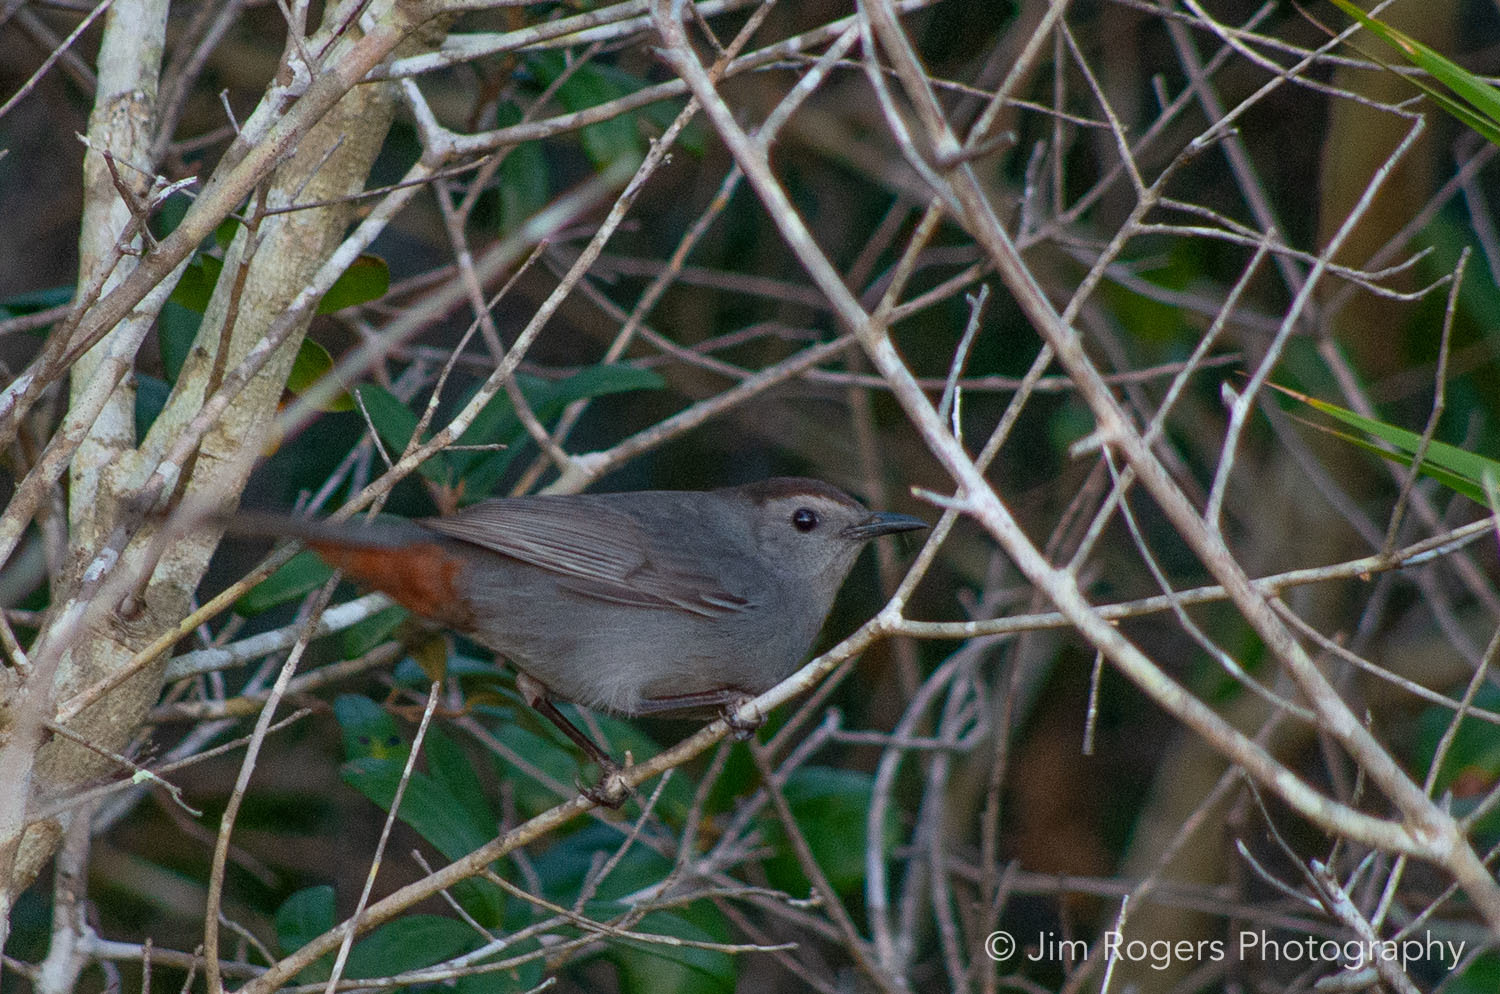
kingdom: Animalia
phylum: Chordata
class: Aves
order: Passeriformes
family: Mimidae
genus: Dumetella
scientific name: Dumetella carolinensis
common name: Gray catbird
